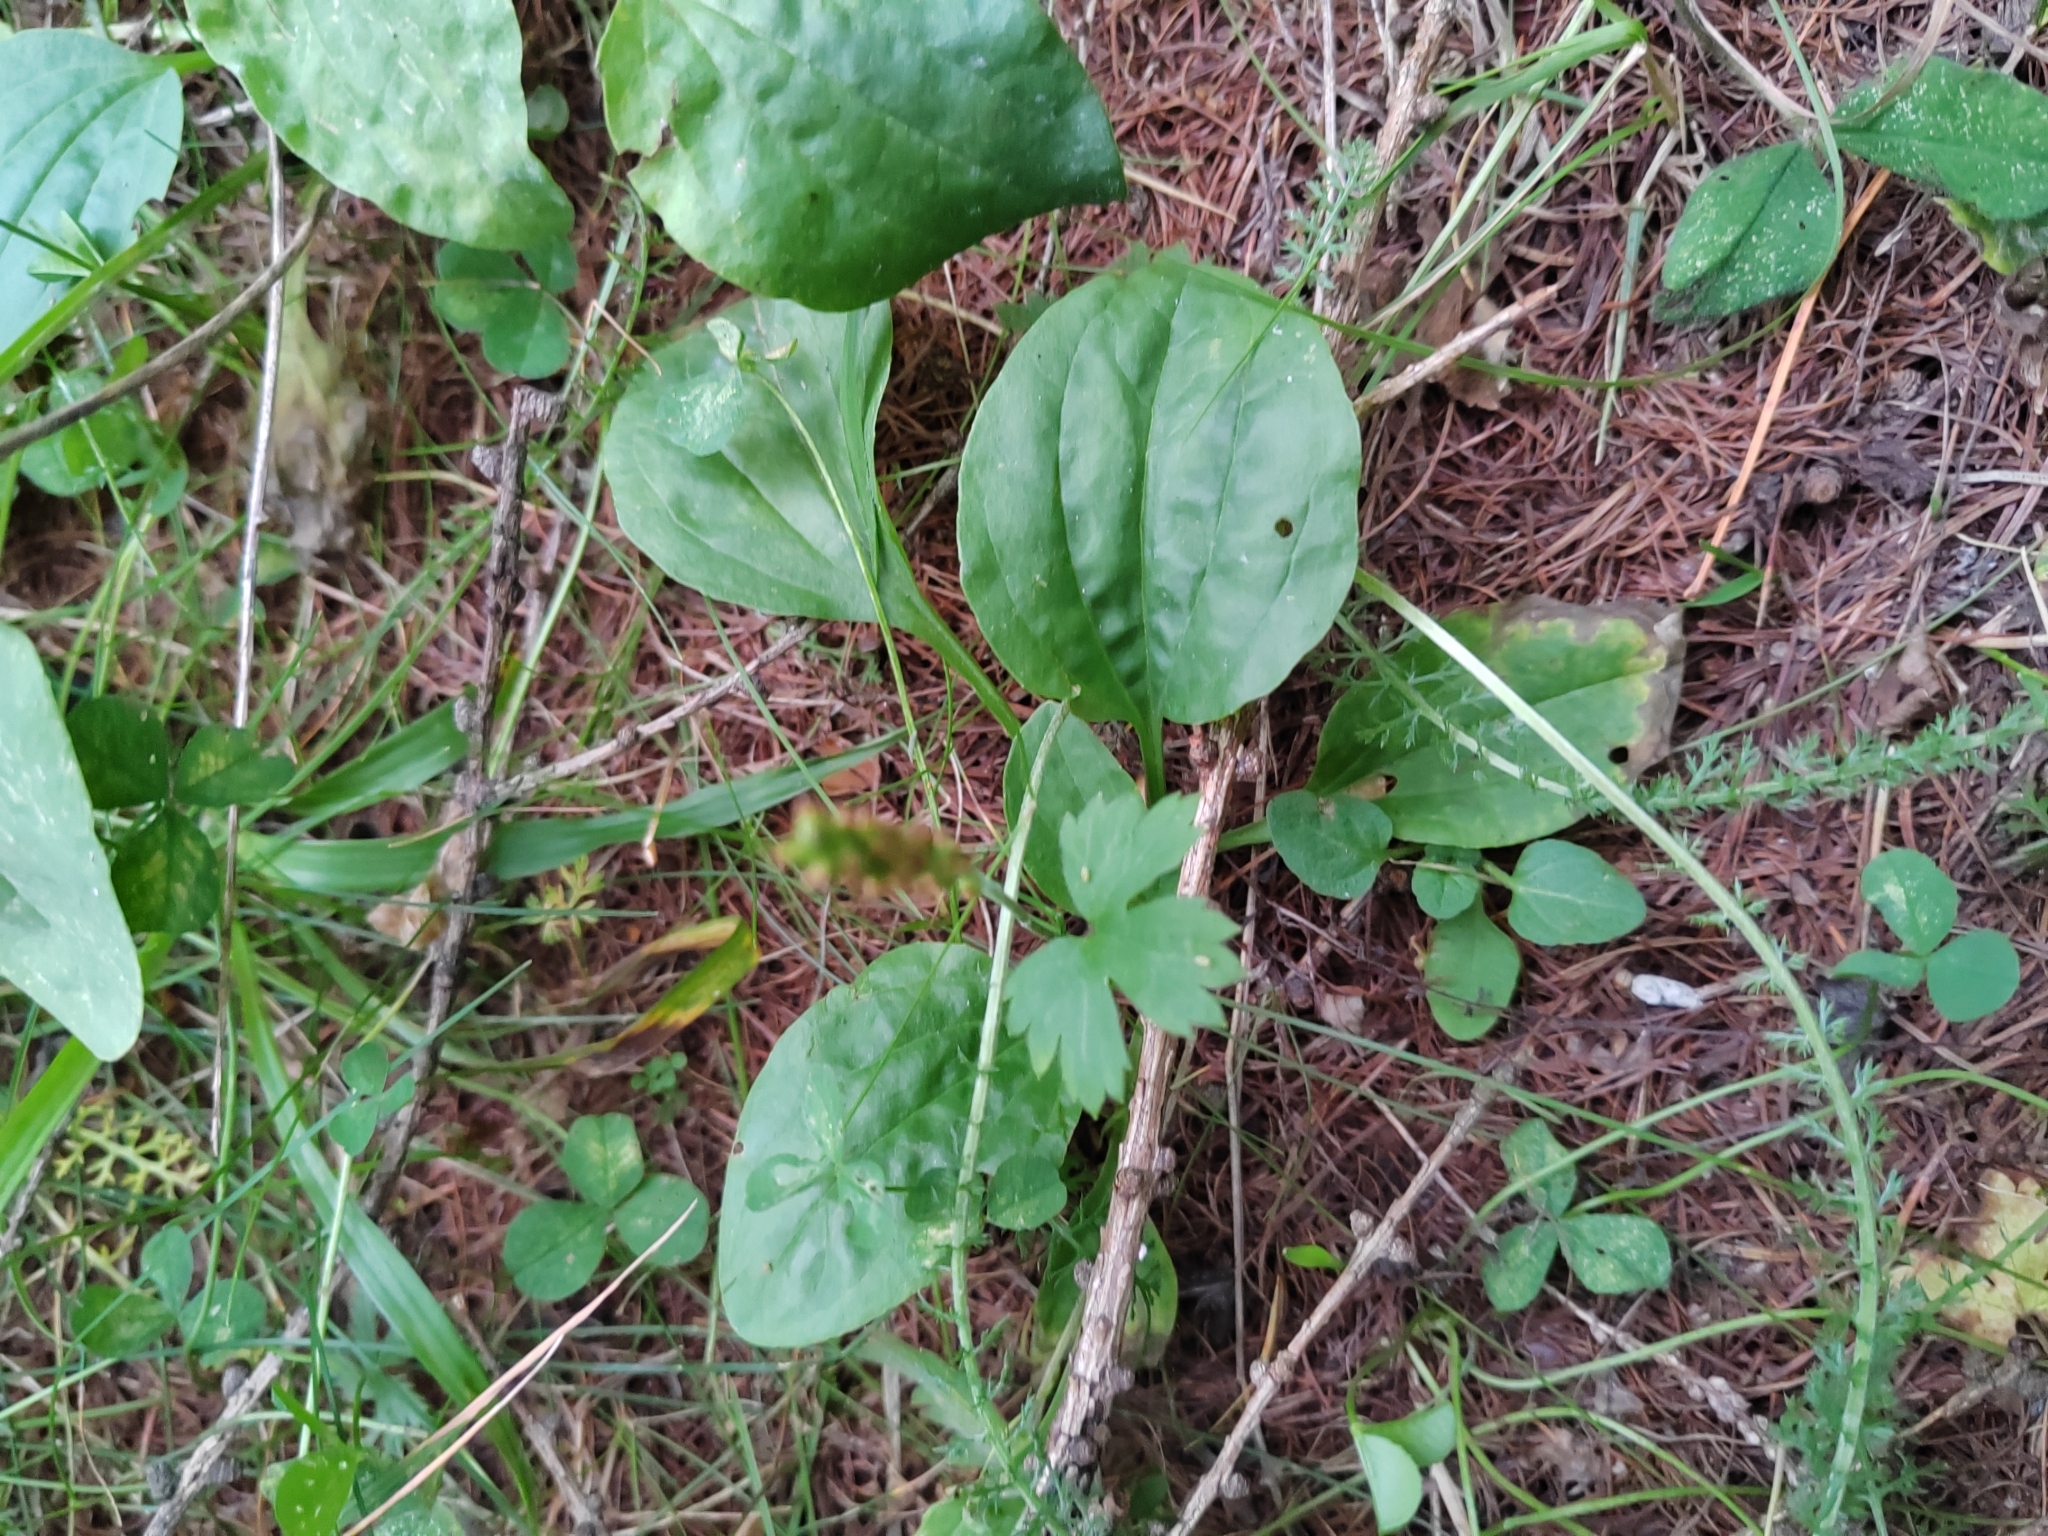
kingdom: Plantae
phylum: Tracheophyta
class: Magnoliopsida
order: Lamiales
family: Plantaginaceae
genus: Plantago
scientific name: Plantago major
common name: Common plantain
